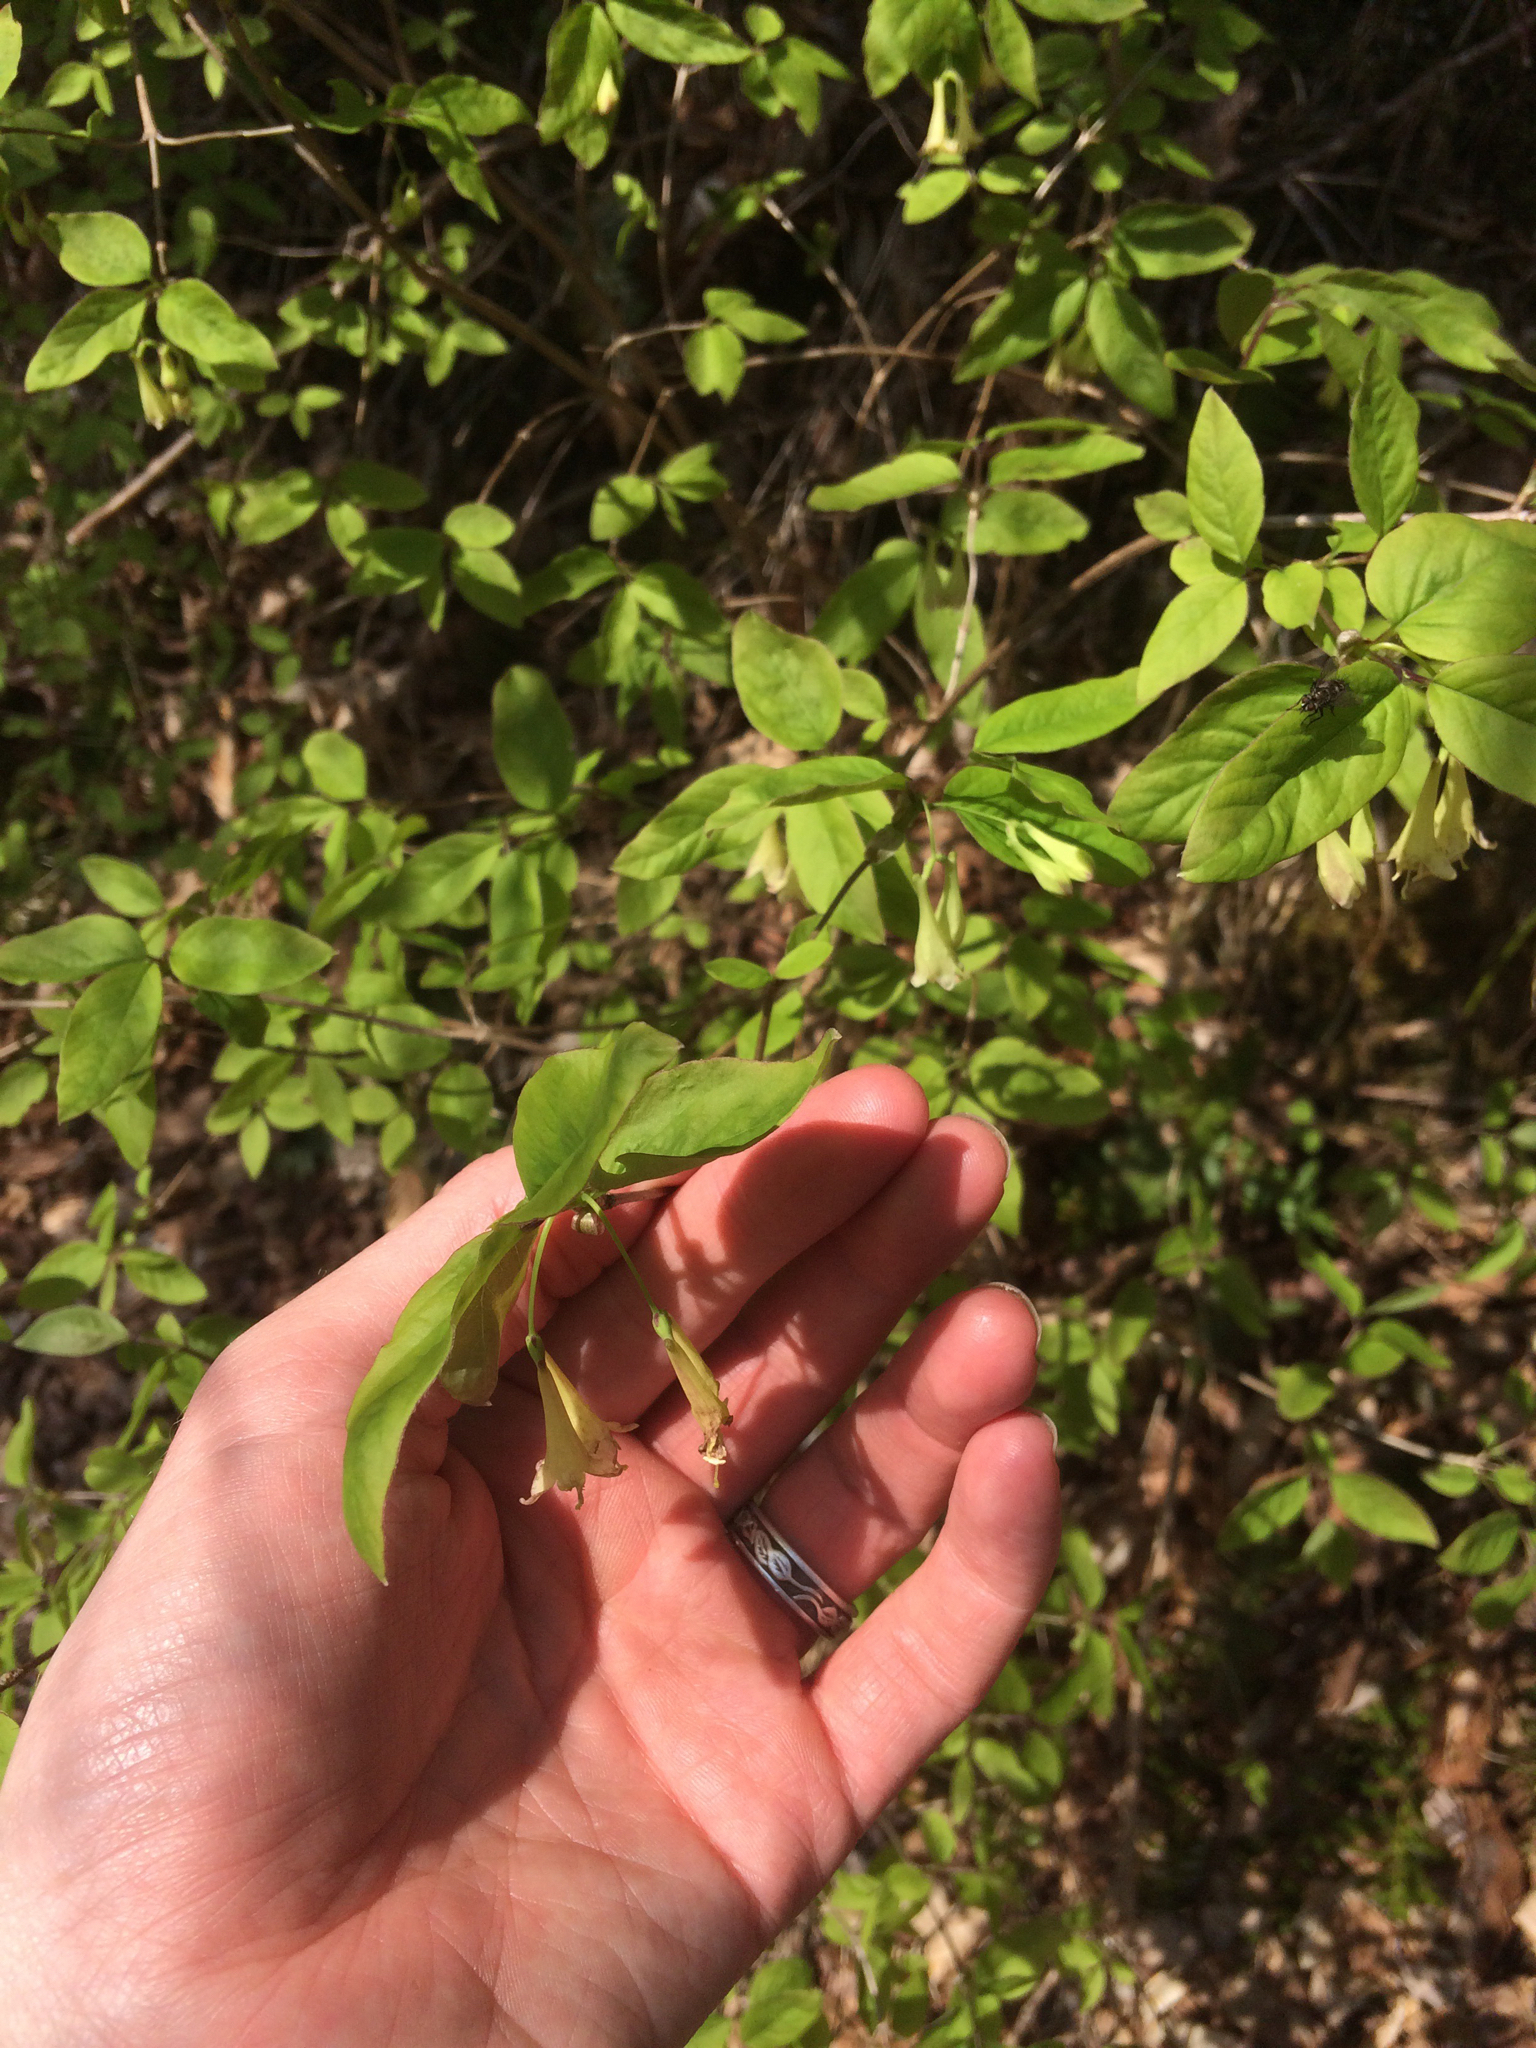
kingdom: Plantae
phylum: Tracheophyta
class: Magnoliopsida
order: Dipsacales
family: Caprifoliaceae
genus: Lonicera
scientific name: Lonicera canadensis
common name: American fly-honeysuckle
